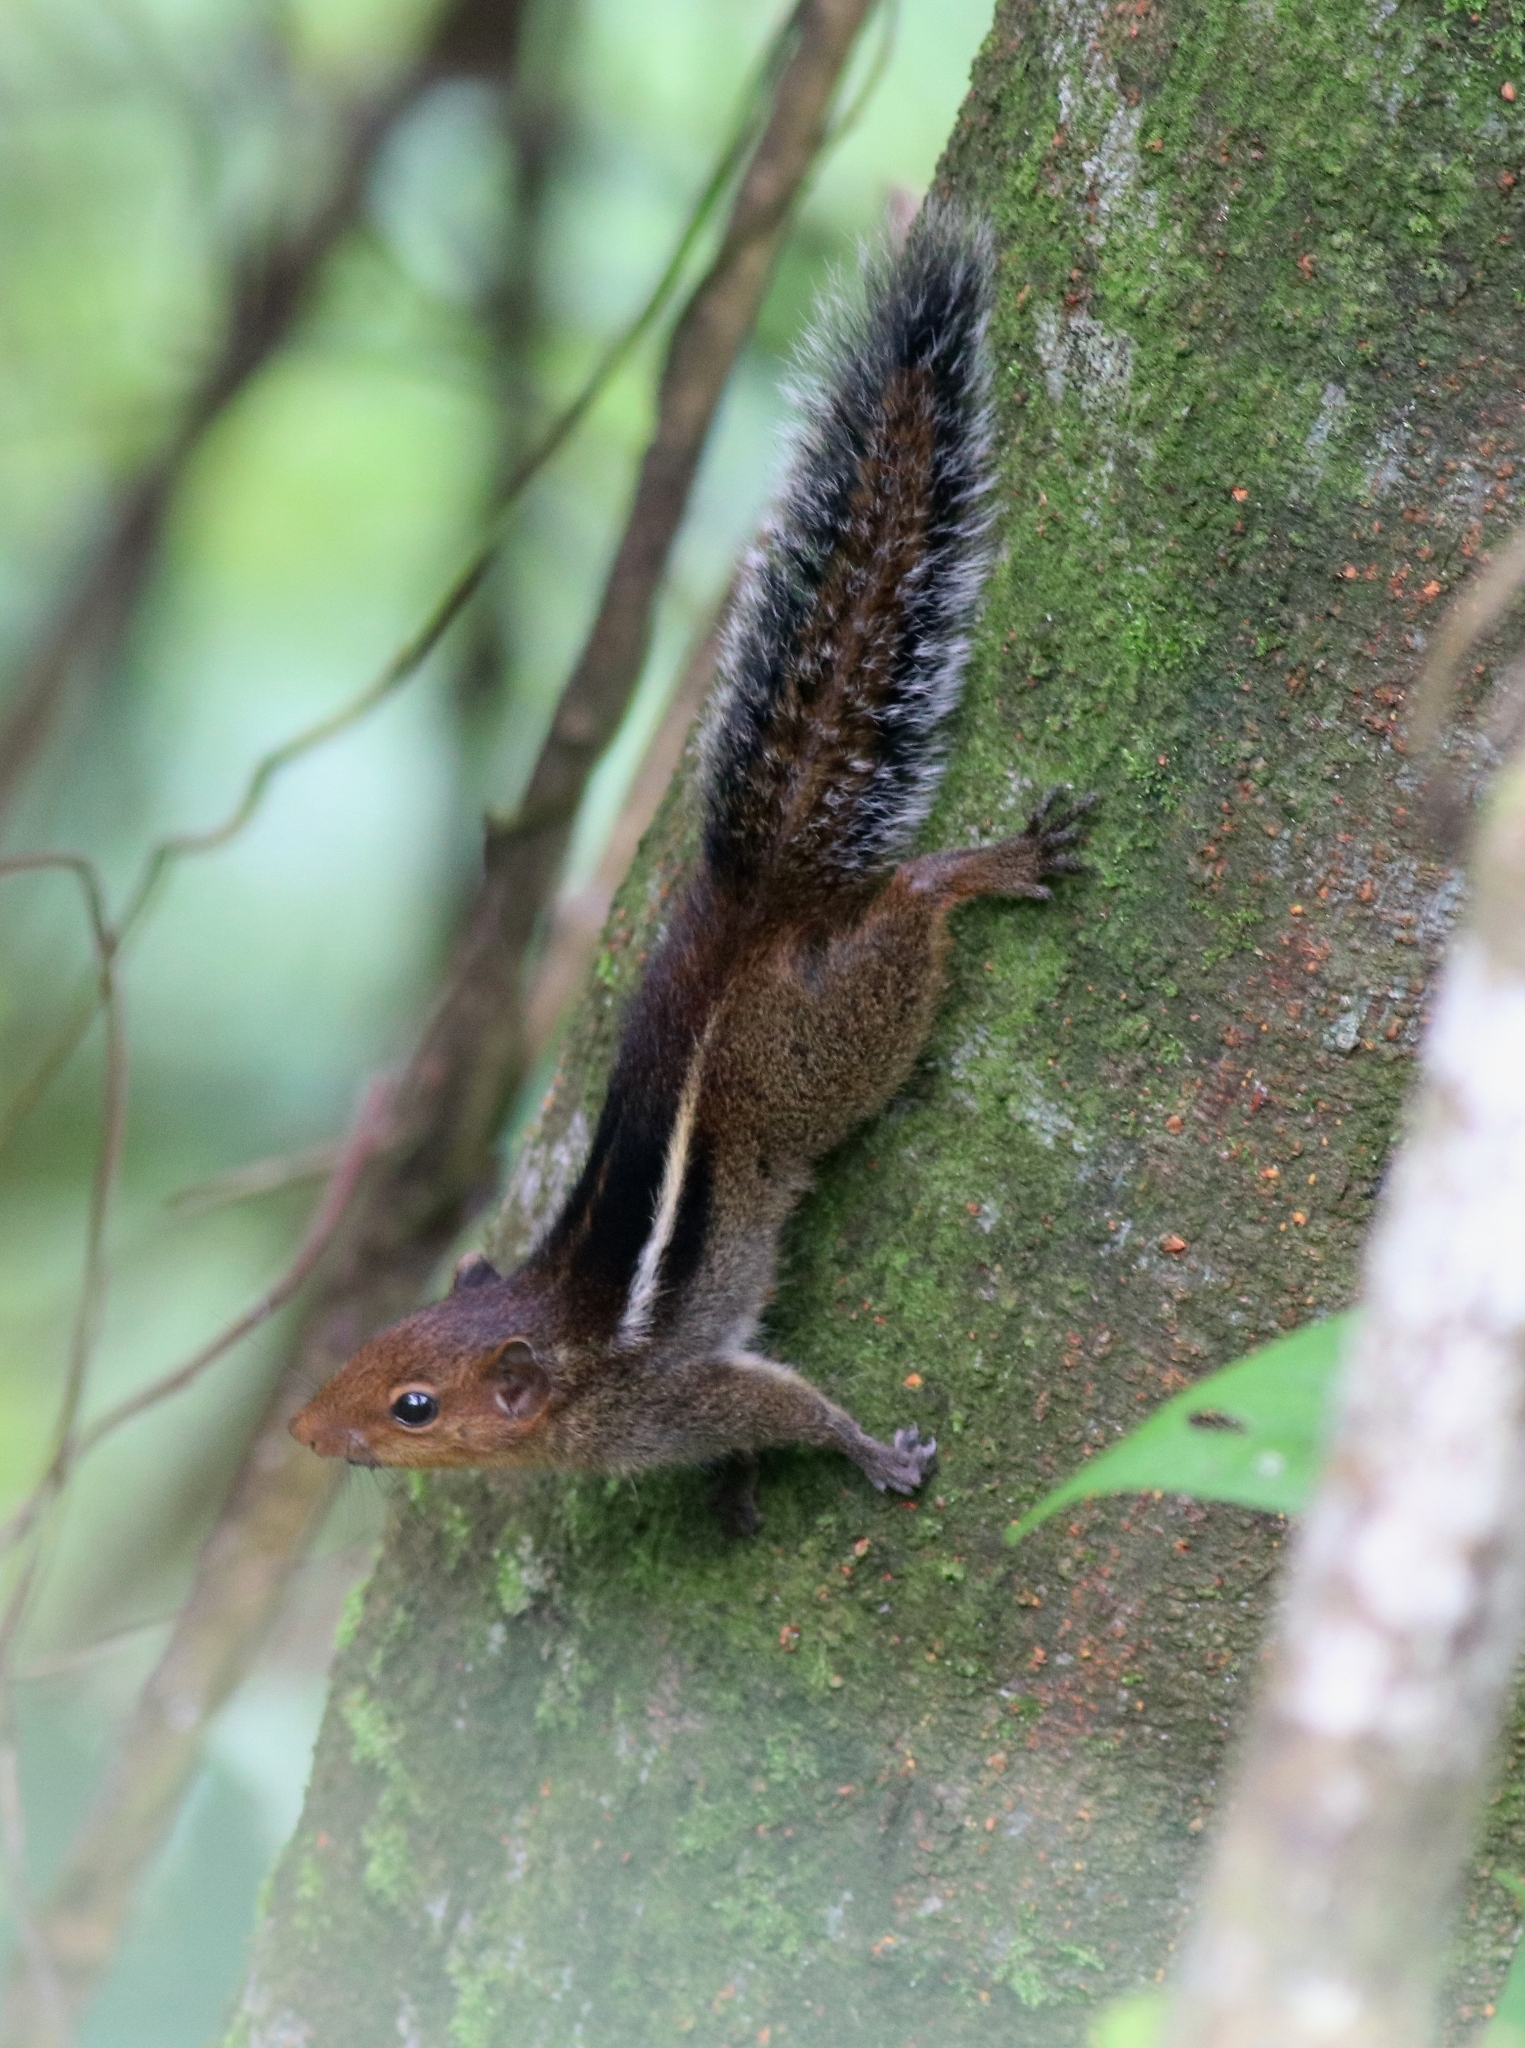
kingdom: Animalia
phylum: Chordata
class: Mammalia
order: Rodentia
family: Sciuridae
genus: Funambulus
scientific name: Funambulus tristriatus
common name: Jungle palm squirrel
